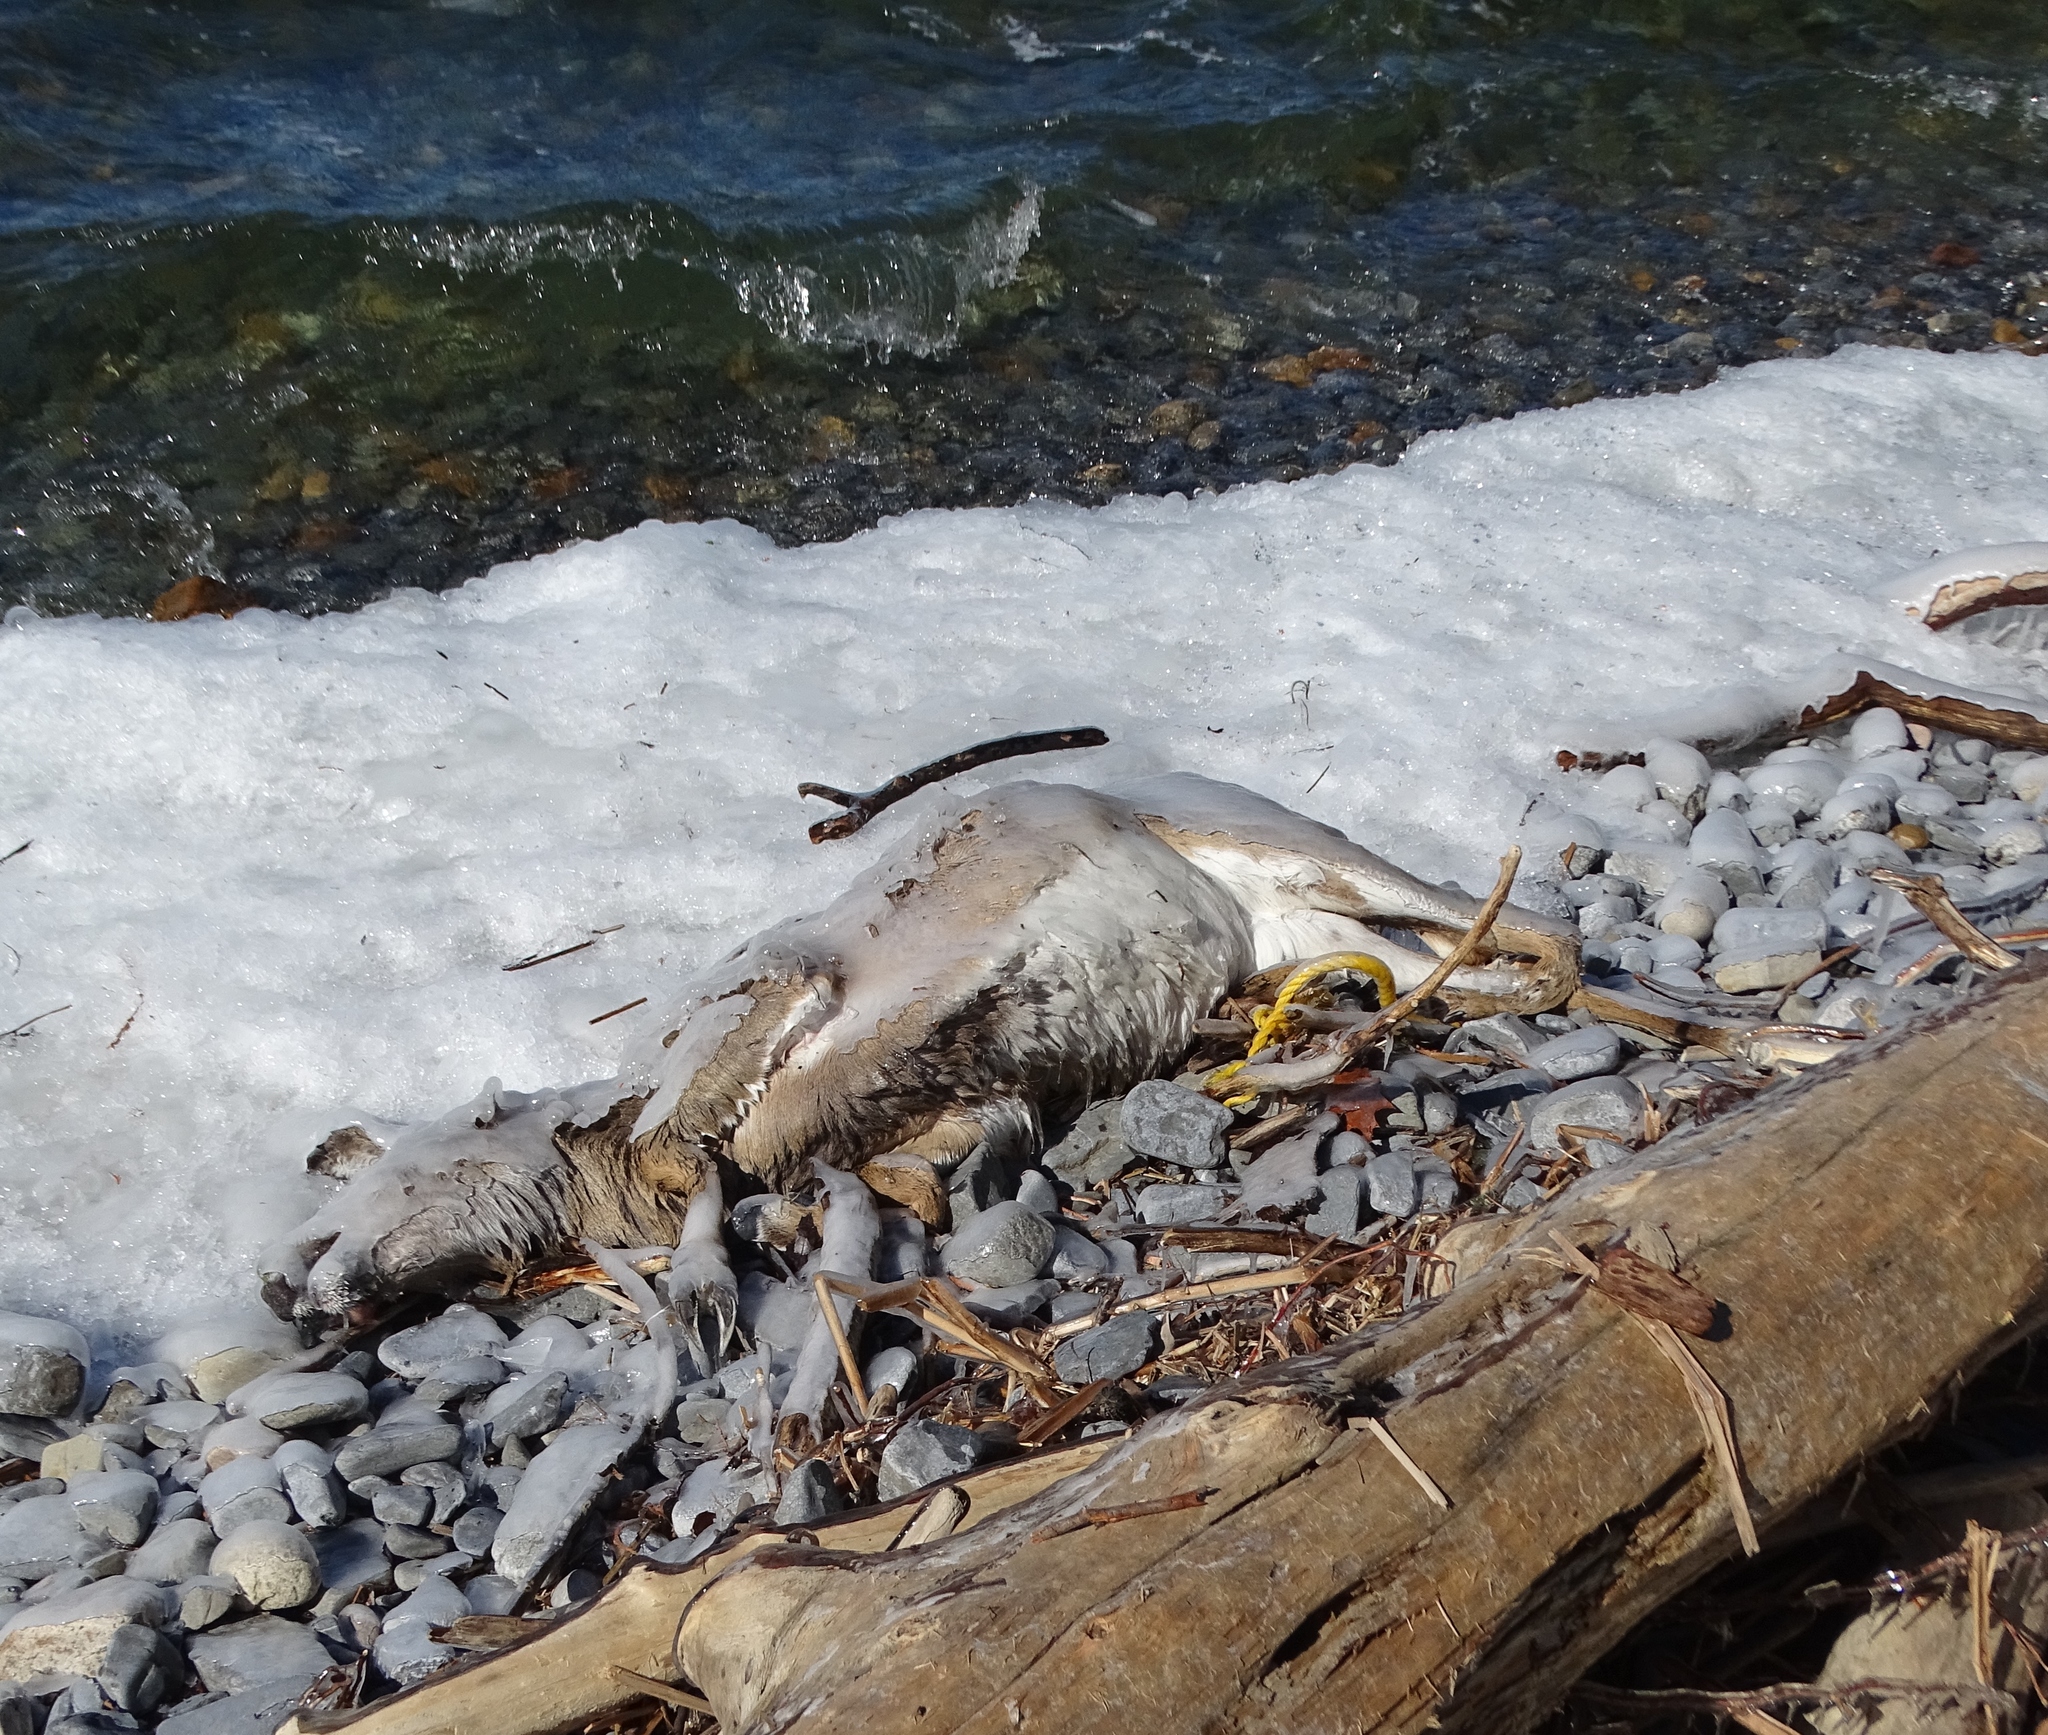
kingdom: Animalia
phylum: Chordata
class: Mammalia
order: Artiodactyla
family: Cervidae
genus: Odocoileus
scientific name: Odocoileus virginianus
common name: White-tailed deer
